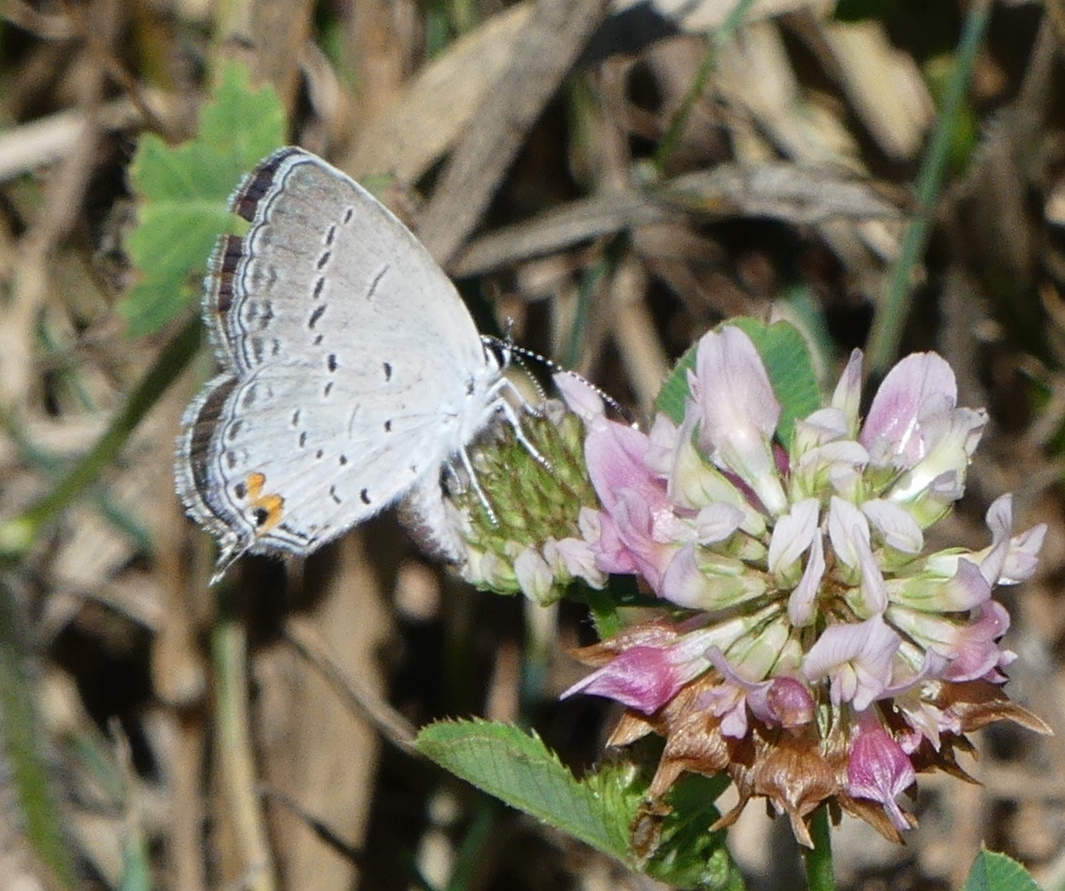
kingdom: Animalia
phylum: Arthropoda
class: Insecta
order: Lepidoptera
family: Lycaenidae
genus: Elkalyce
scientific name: Elkalyce comyntas
